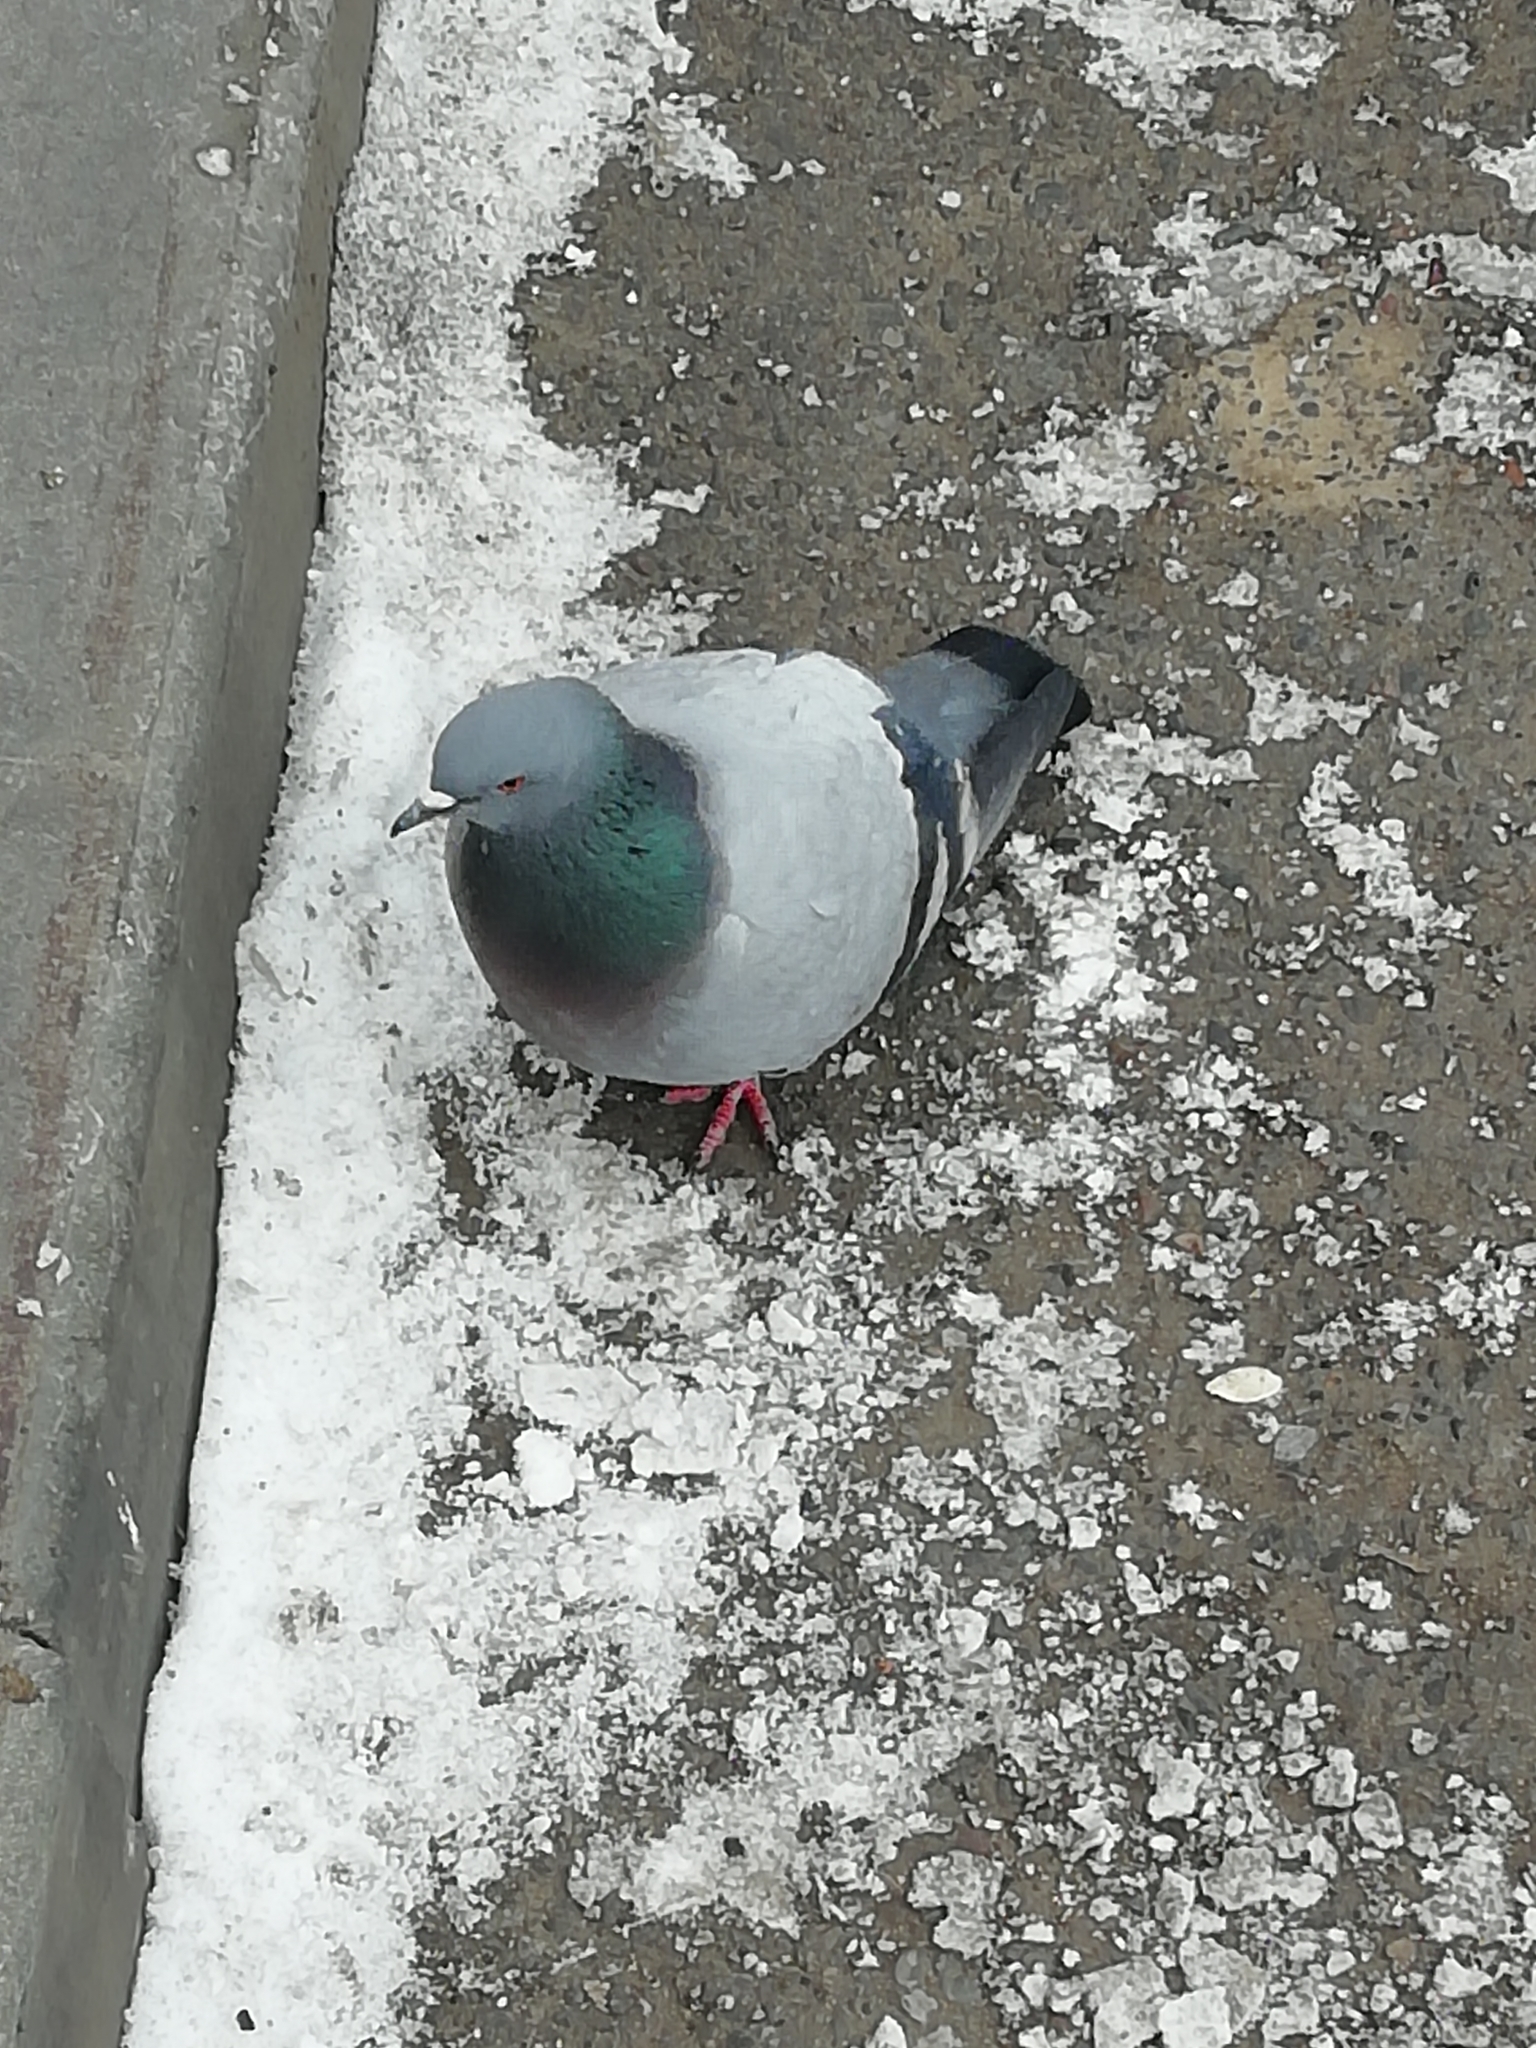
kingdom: Animalia
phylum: Chordata
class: Aves
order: Columbiformes
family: Columbidae
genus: Columba
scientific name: Columba livia
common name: Rock pigeon
